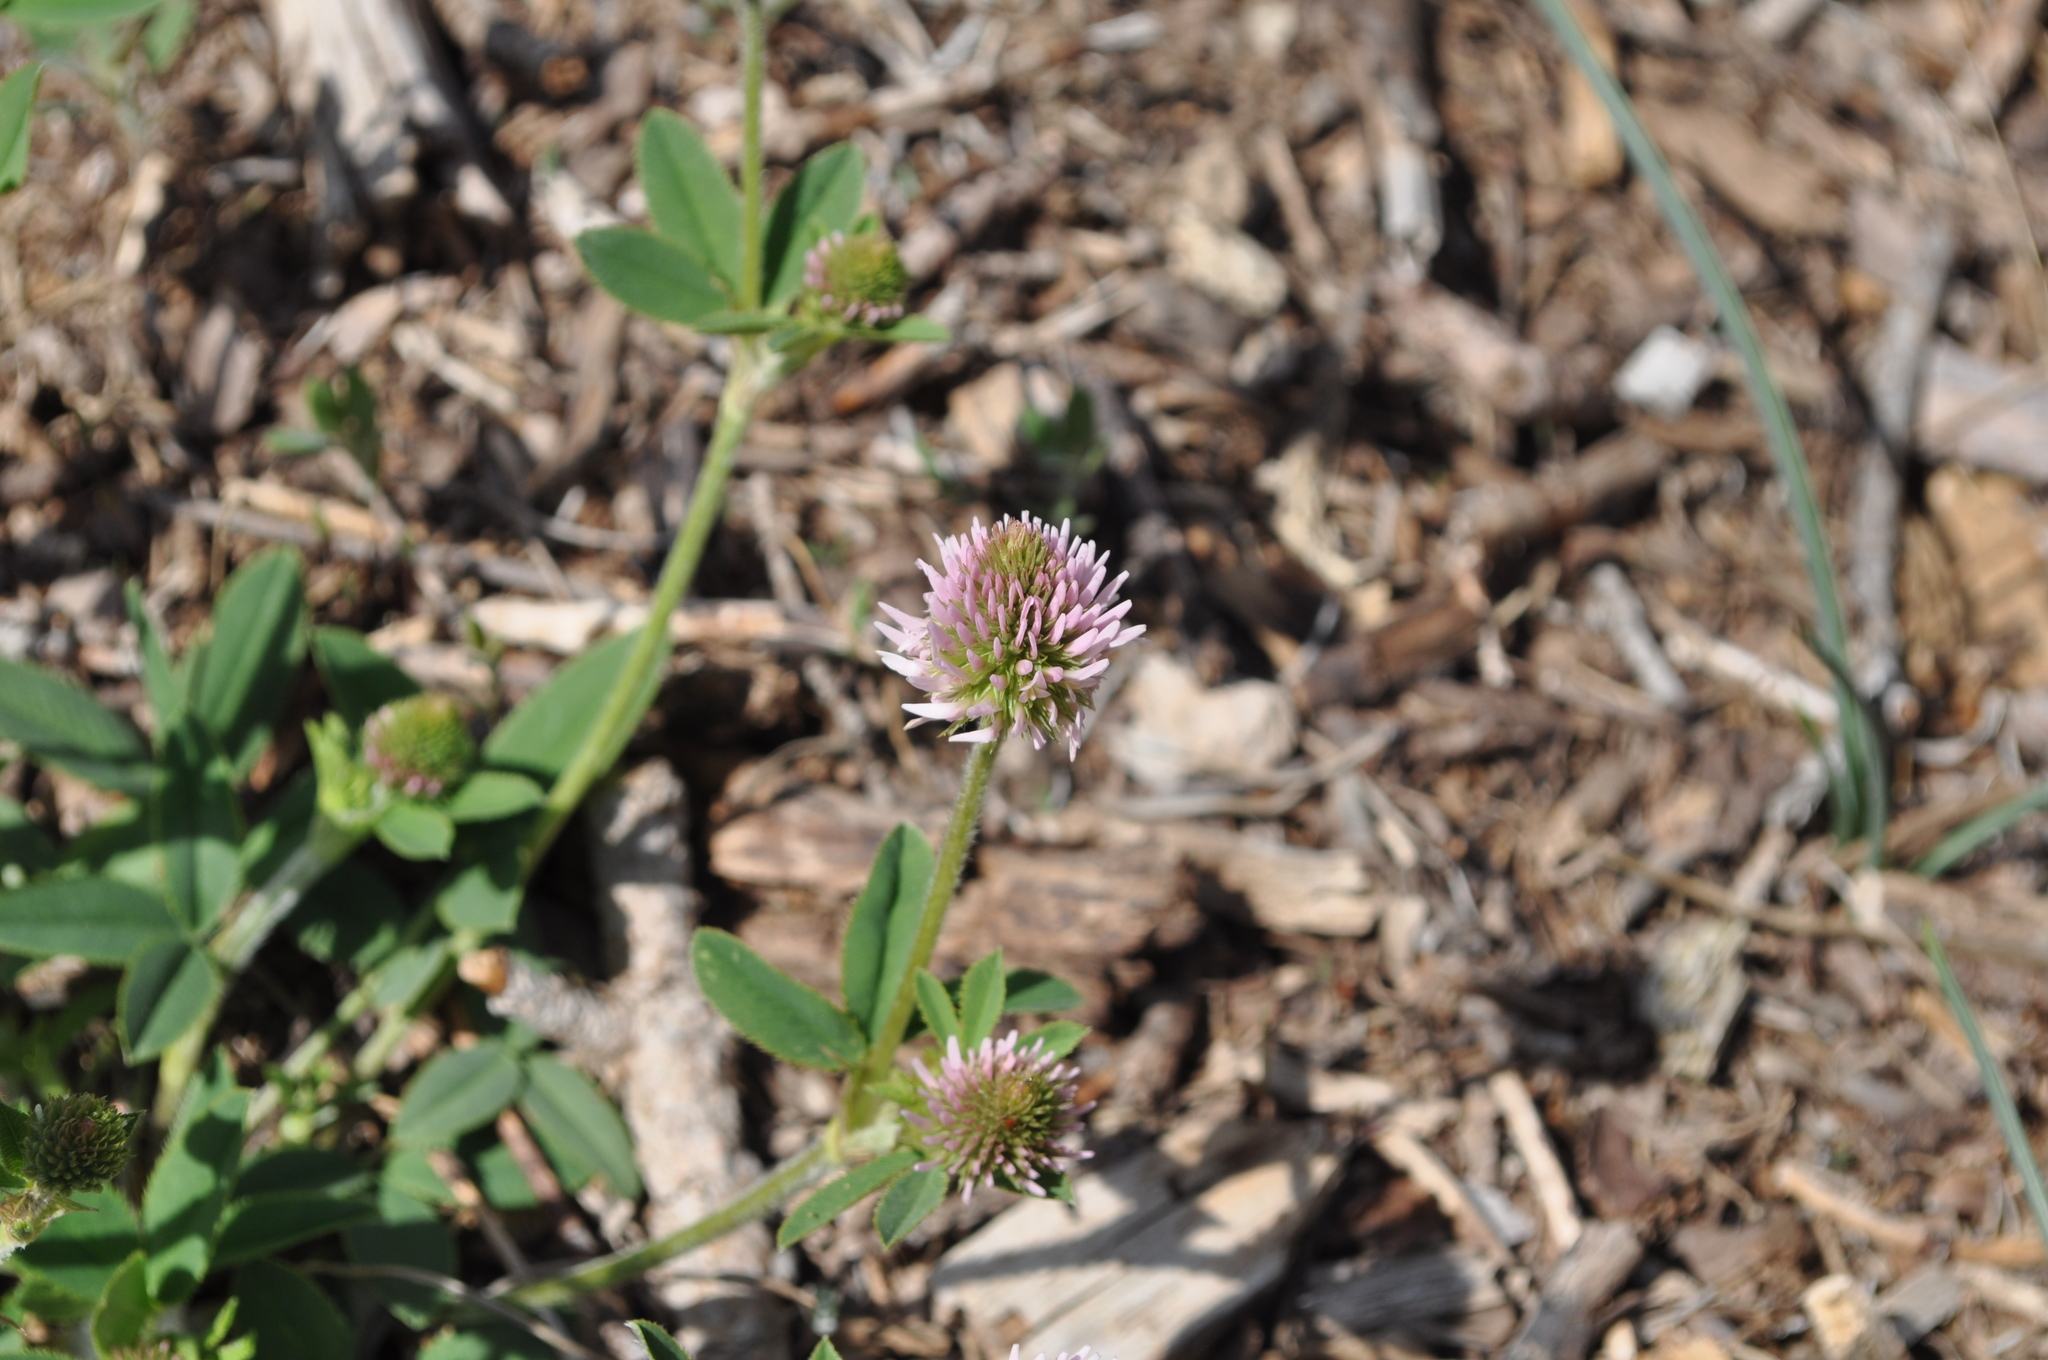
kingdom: Plantae
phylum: Tracheophyta
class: Magnoliopsida
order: Fabales
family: Fabaceae
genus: Trifolium
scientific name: Trifolium montanum
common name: Mountain clover
